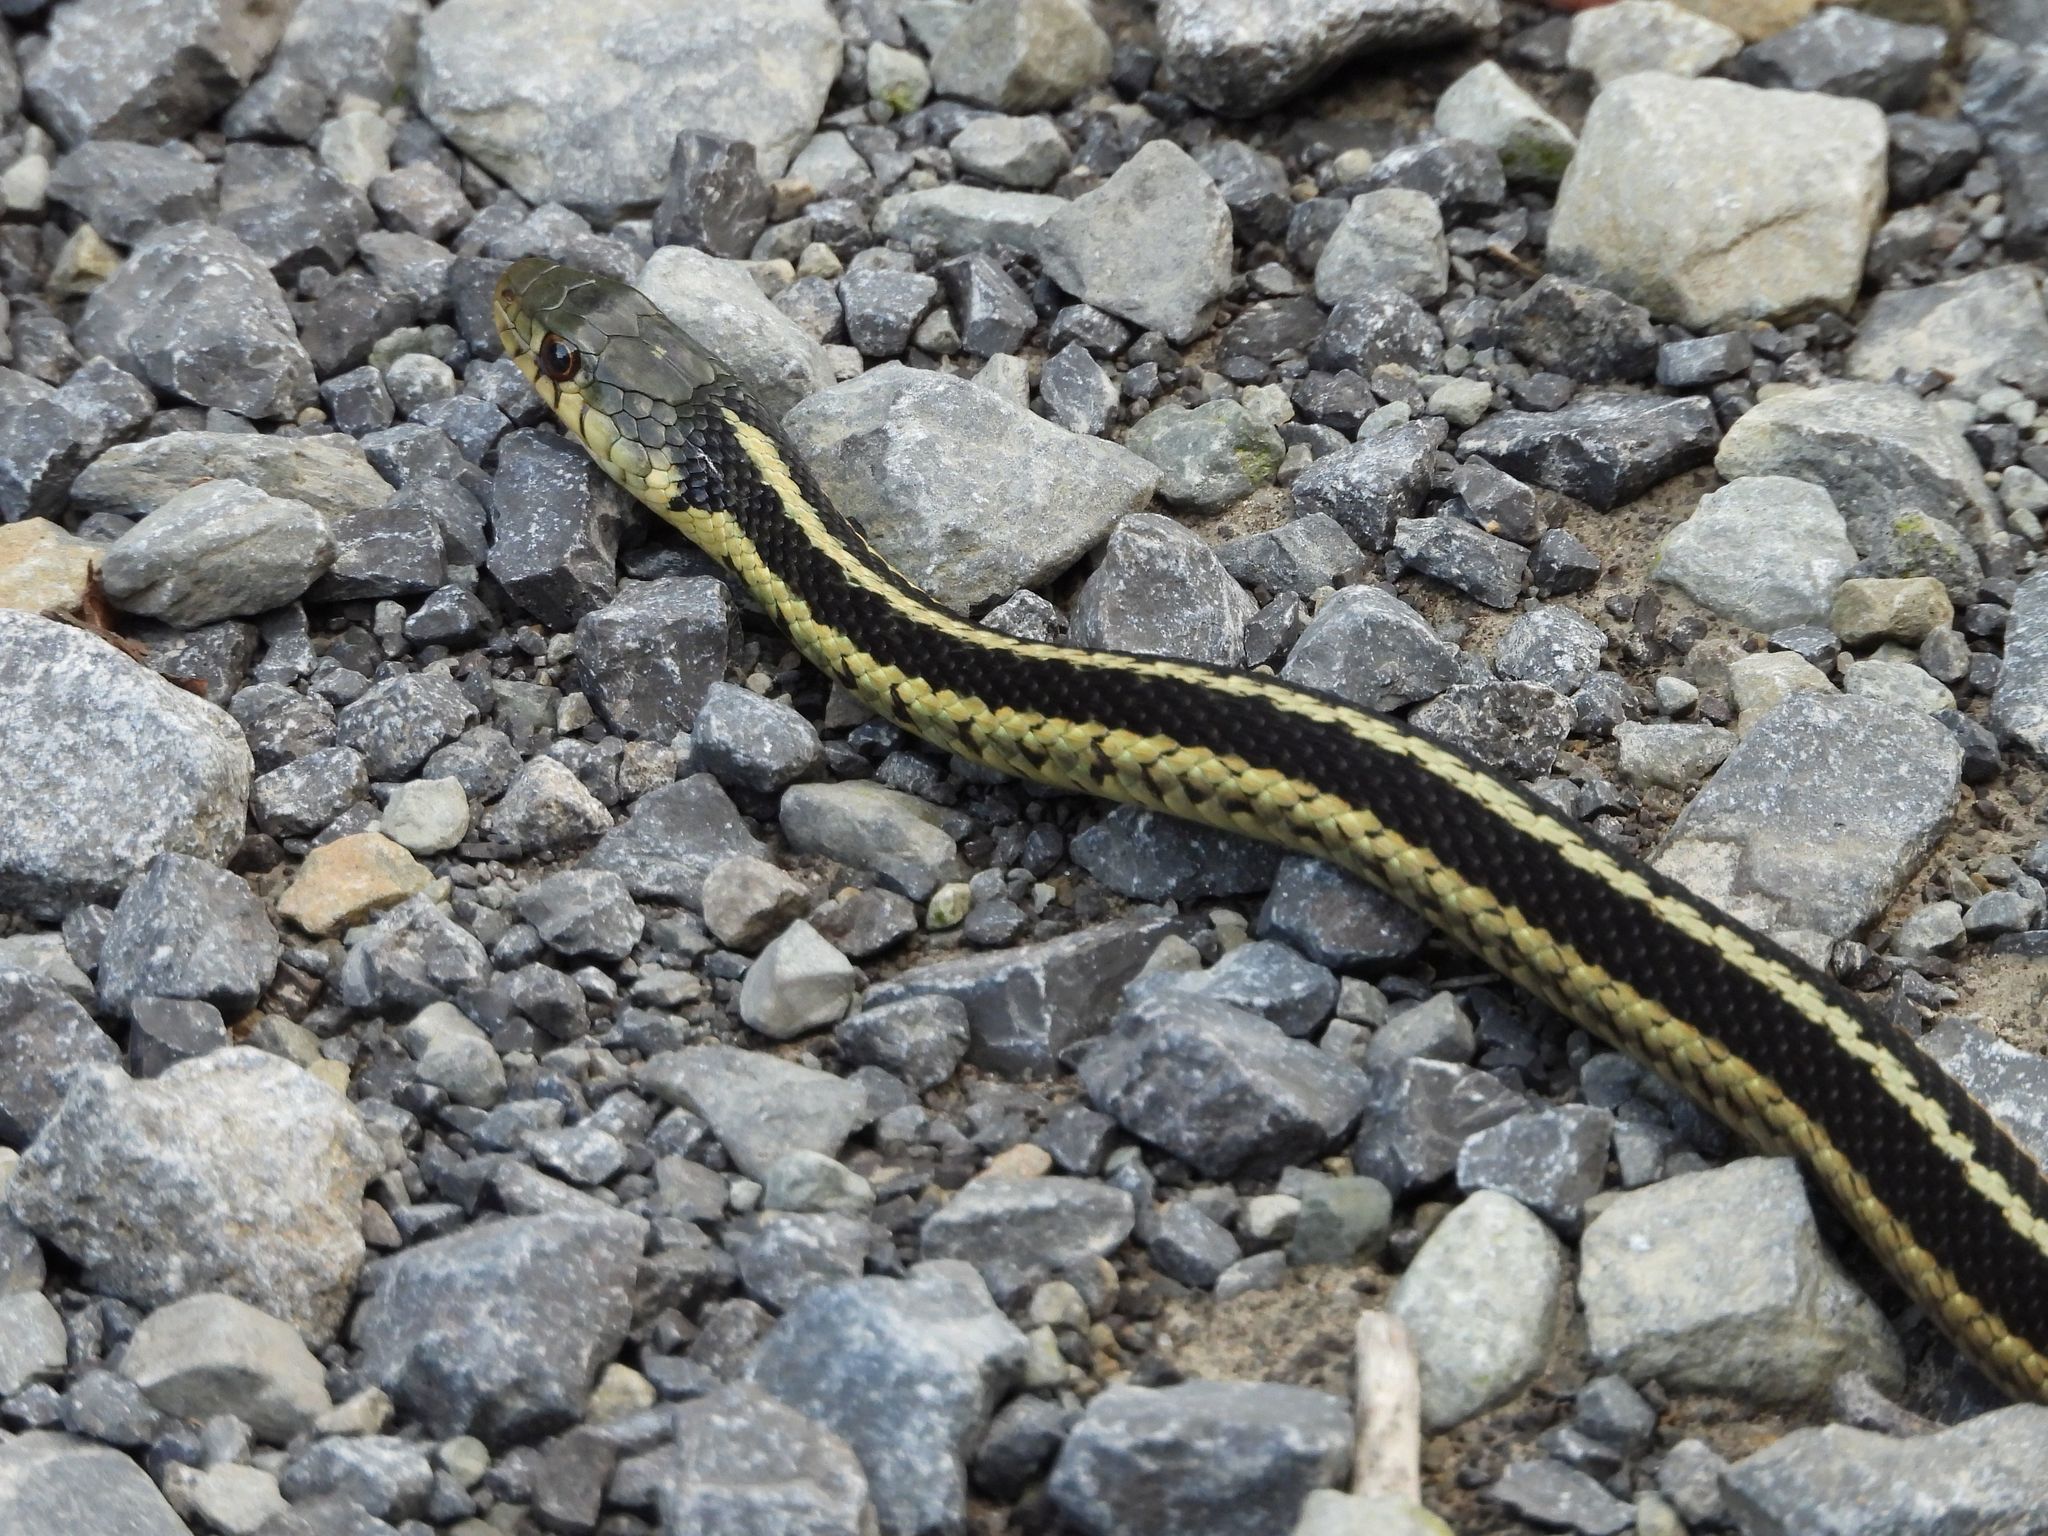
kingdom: Animalia
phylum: Chordata
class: Squamata
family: Colubridae
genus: Thamnophis
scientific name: Thamnophis sirtalis
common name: Common garter snake
